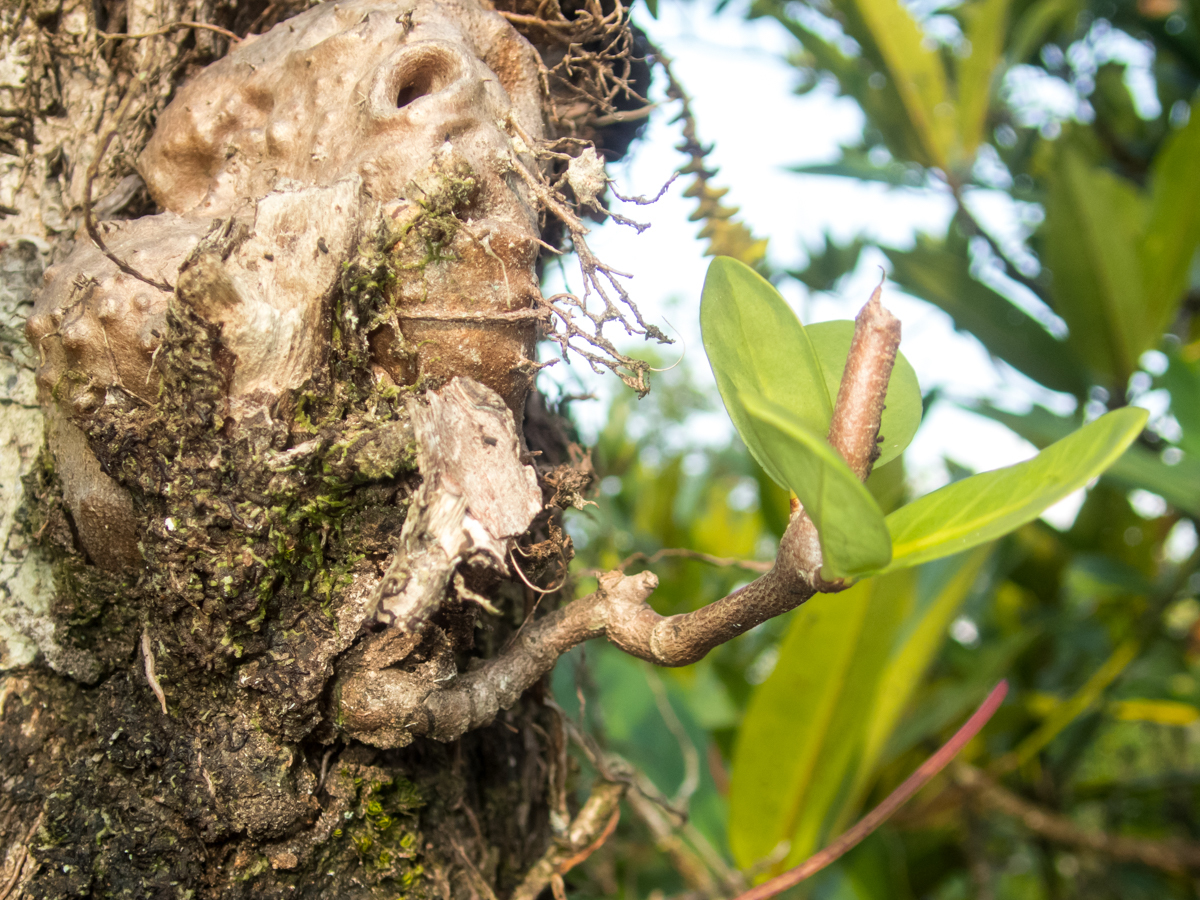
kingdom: Plantae
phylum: Tracheophyta
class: Magnoliopsida
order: Gentianales
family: Rubiaceae
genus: Hydnophytum
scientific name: Hydnophytum formicarum
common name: Ant plant
